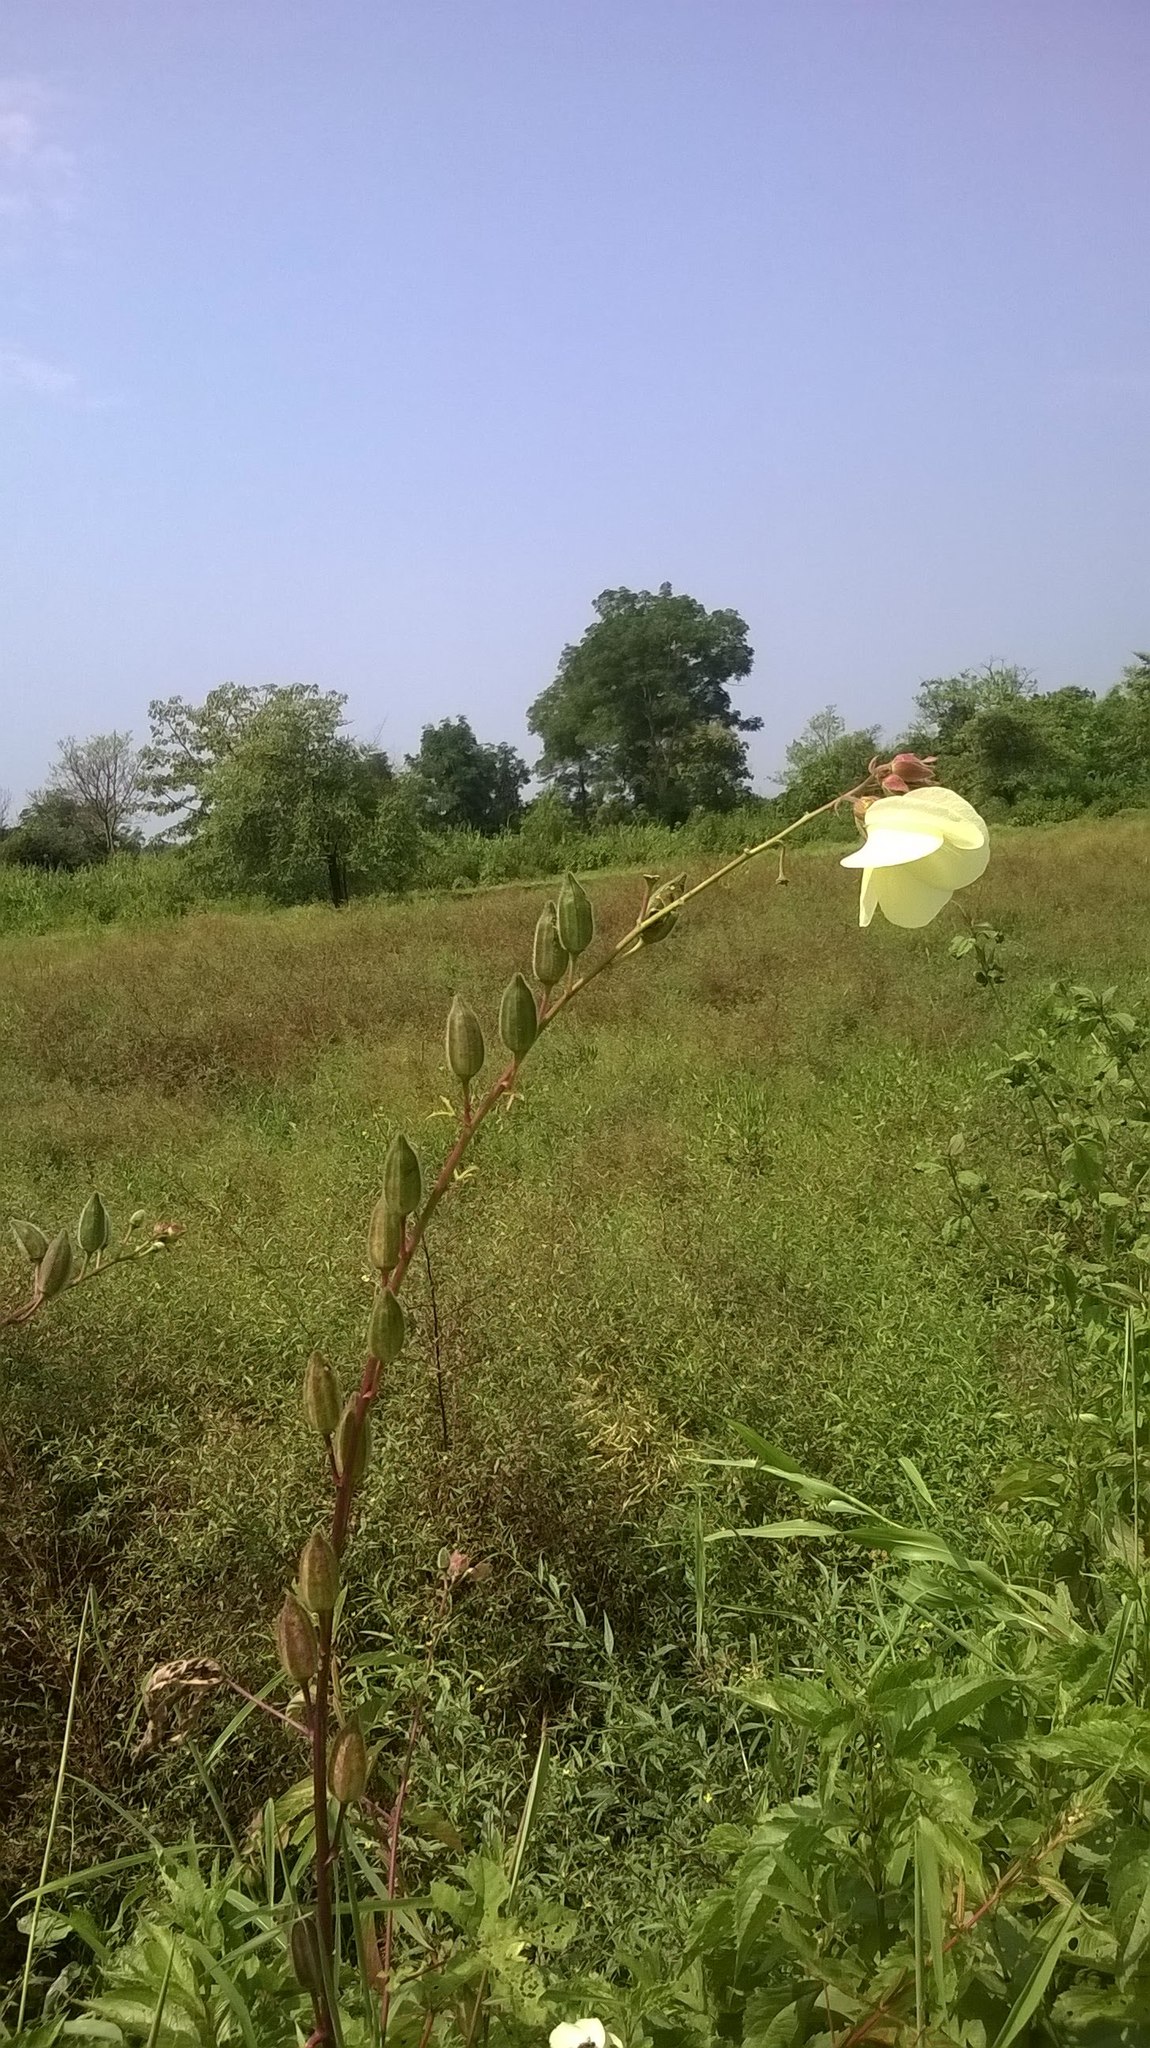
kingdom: Plantae
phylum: Tracheophyta
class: Magnoliopsida
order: Malvales
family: Malvaceae
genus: Abelmoschus
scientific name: Abelmoschus esculentus
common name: Okra
